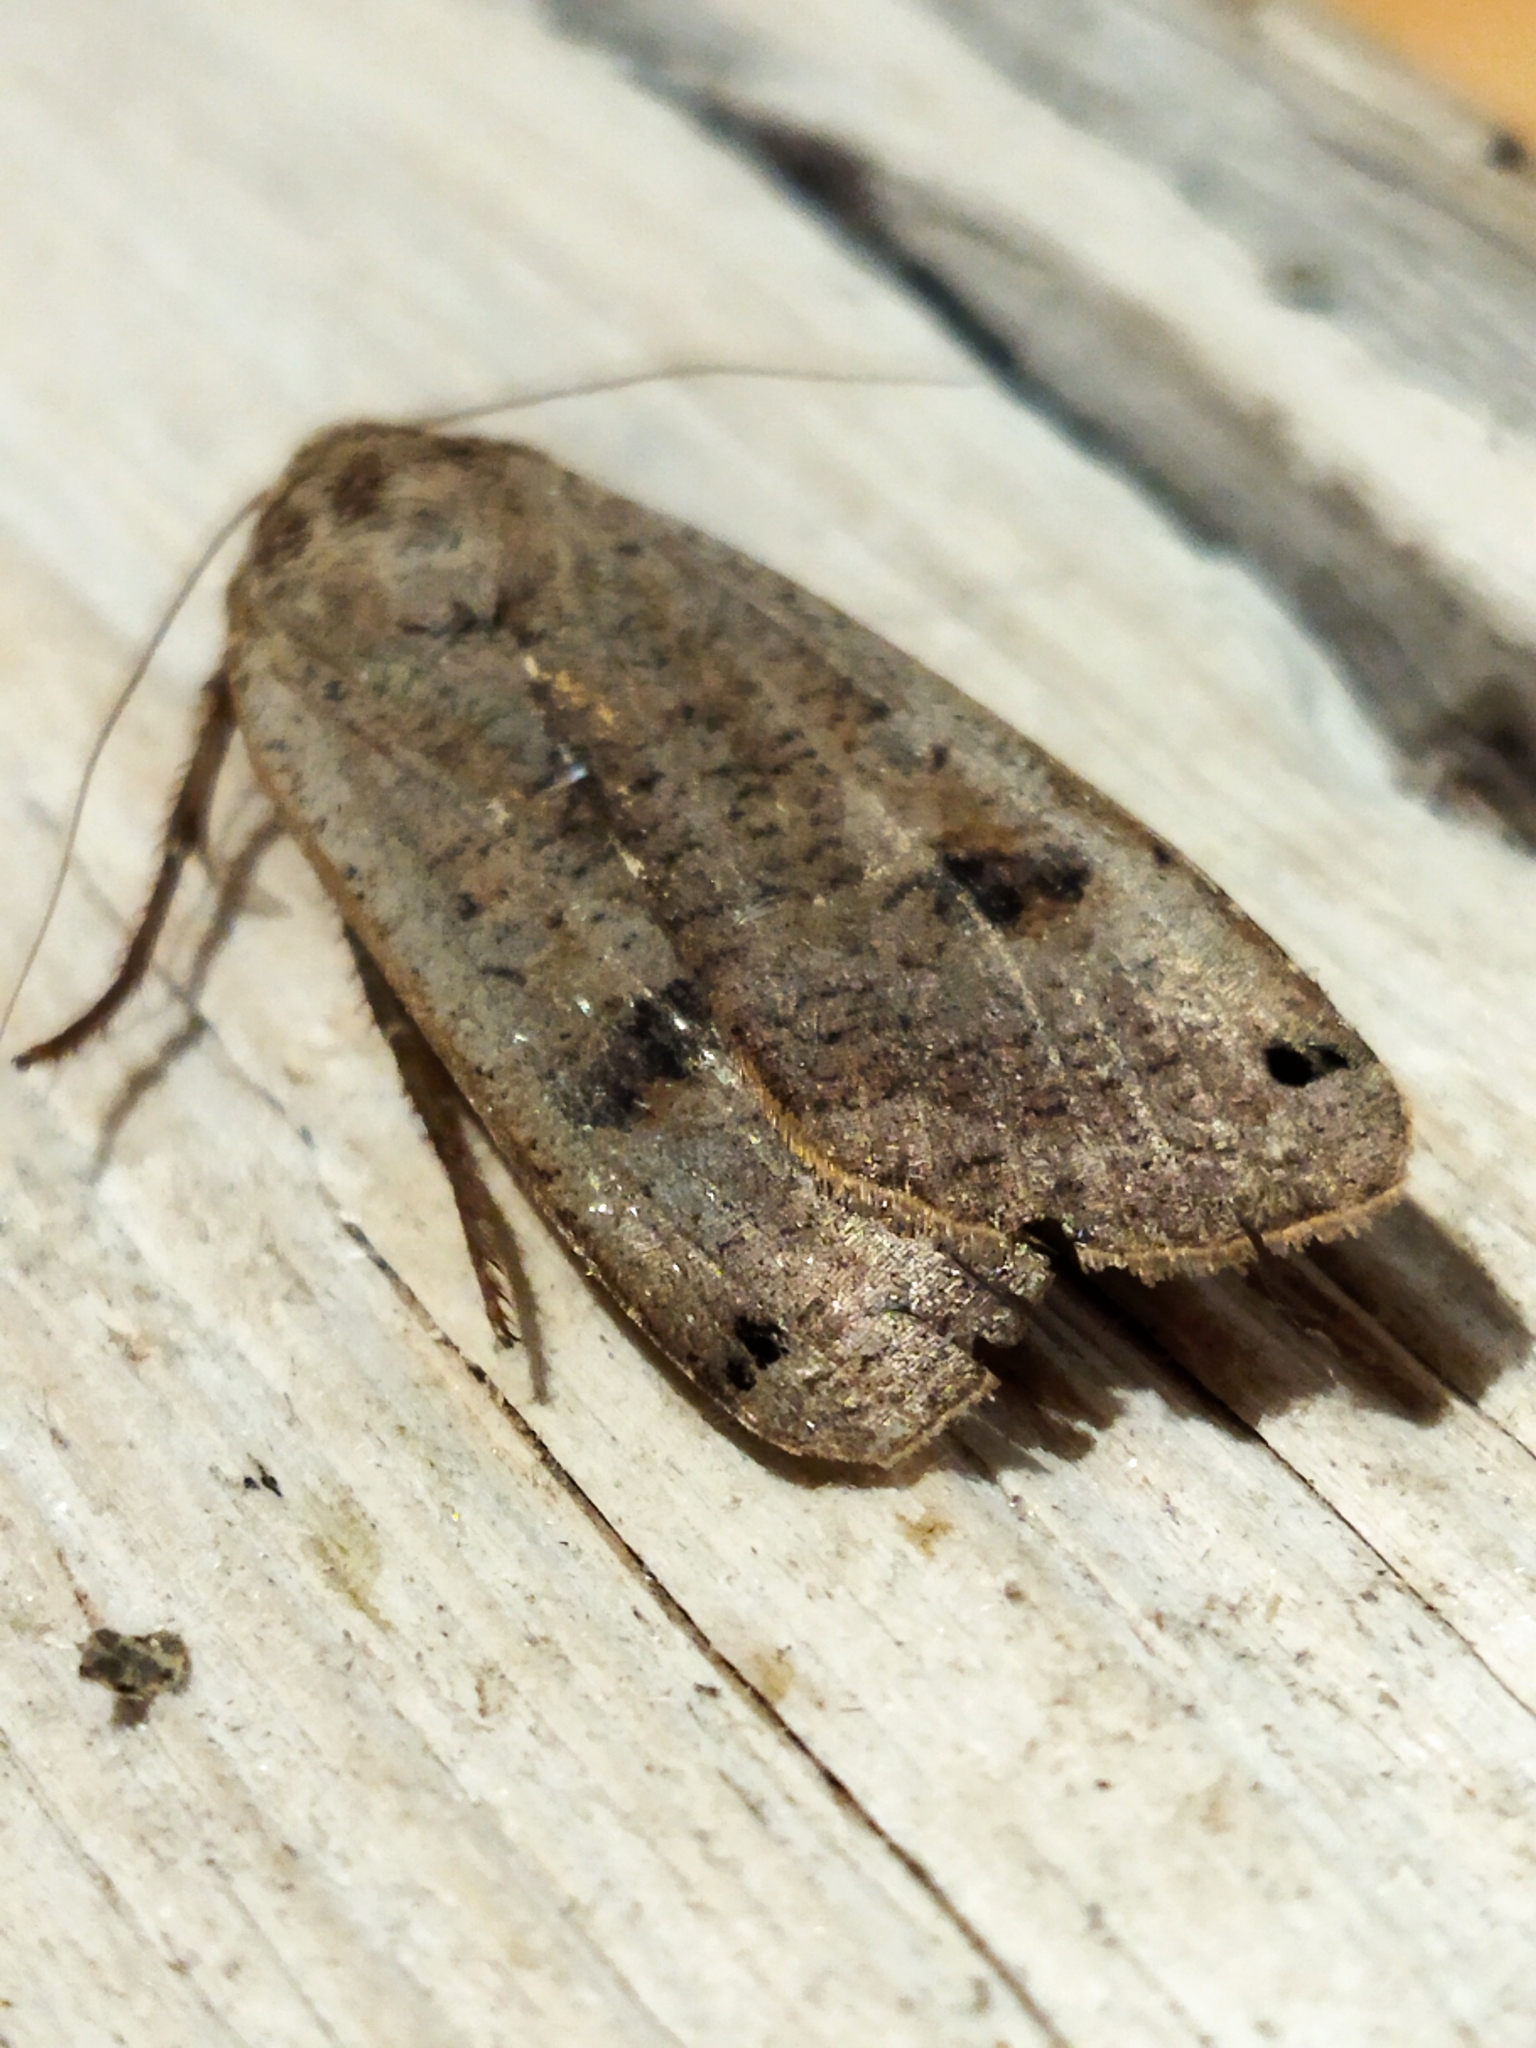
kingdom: Animalia
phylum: Arthropoda
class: Insecta
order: Lepidoptera
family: Noctuidae
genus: Noctua
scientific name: Noctua pronuba
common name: Large yellow underwing
